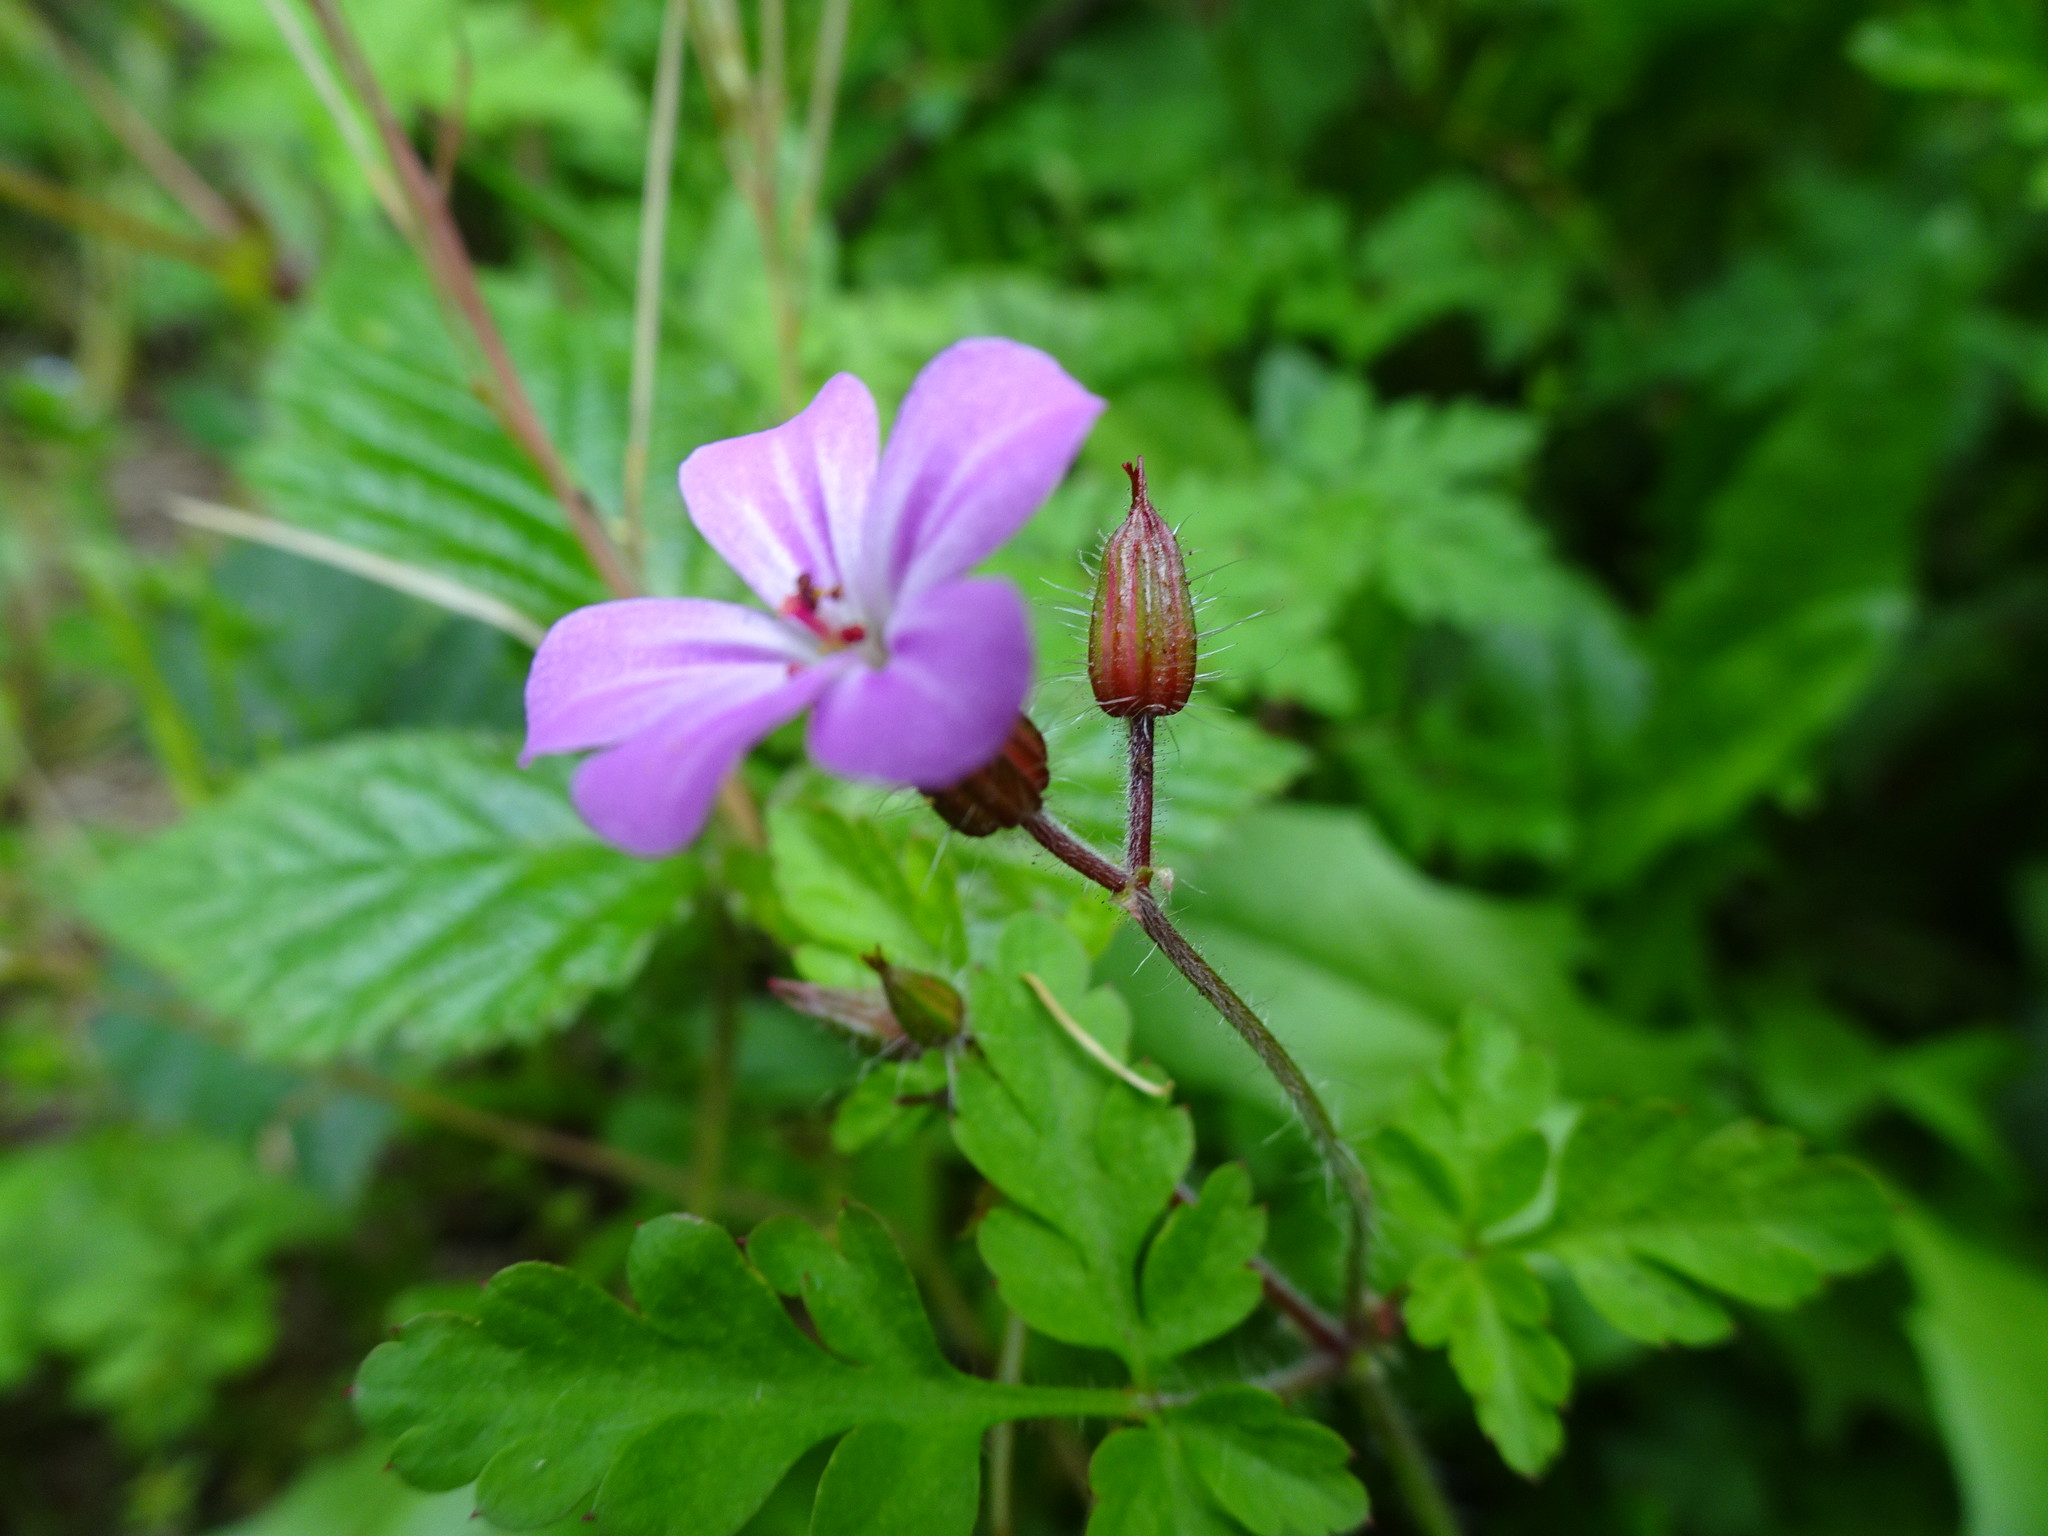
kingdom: Plantae
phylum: Tracheophyta
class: Magnoliopsida
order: Geraniales
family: Geraniaceae
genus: Geranium
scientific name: Geranium robertianum
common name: Herb-robert
